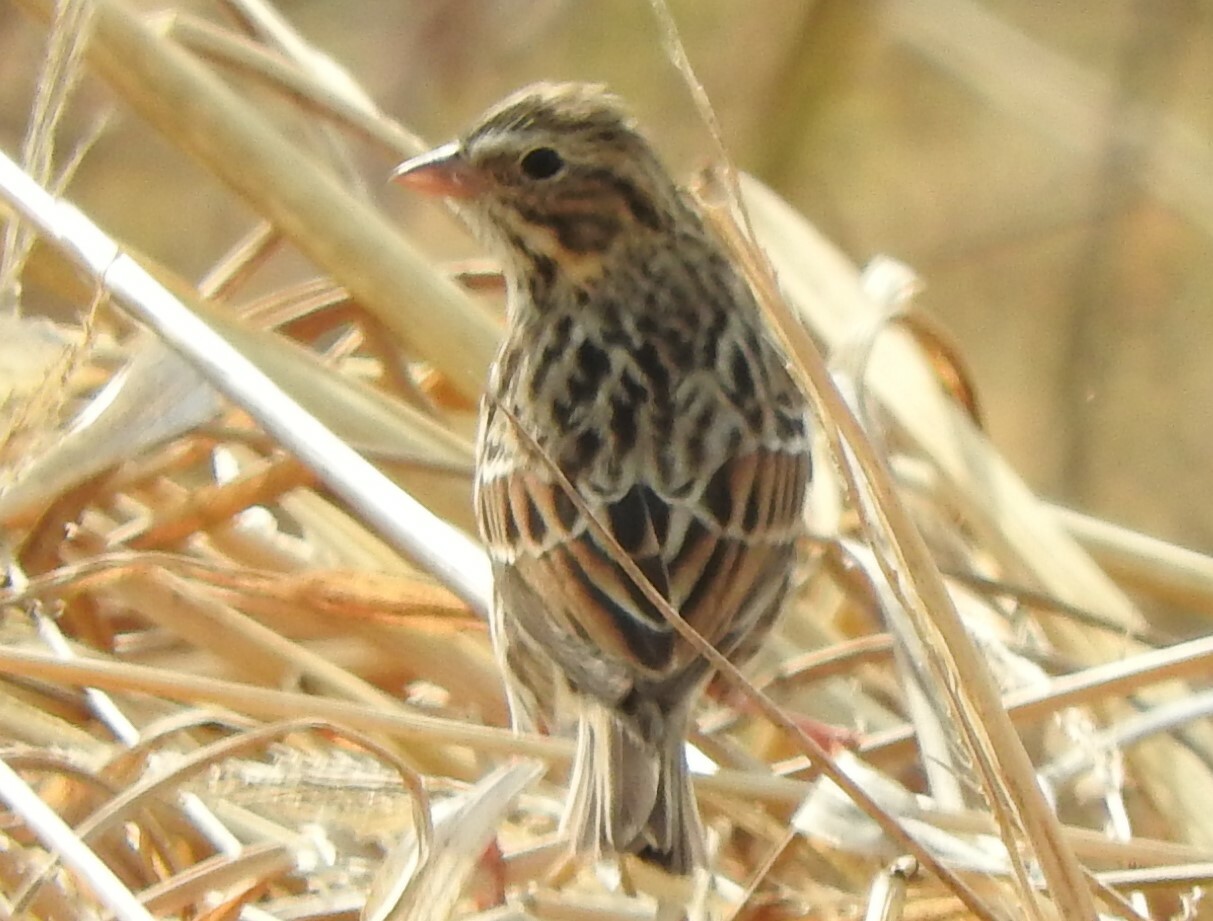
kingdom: Animalia
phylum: Chordata
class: Aves
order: Passeriformes
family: Passerellidae
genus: Passerculus
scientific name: Passerculus sandwichensis
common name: Savannah sparrow
